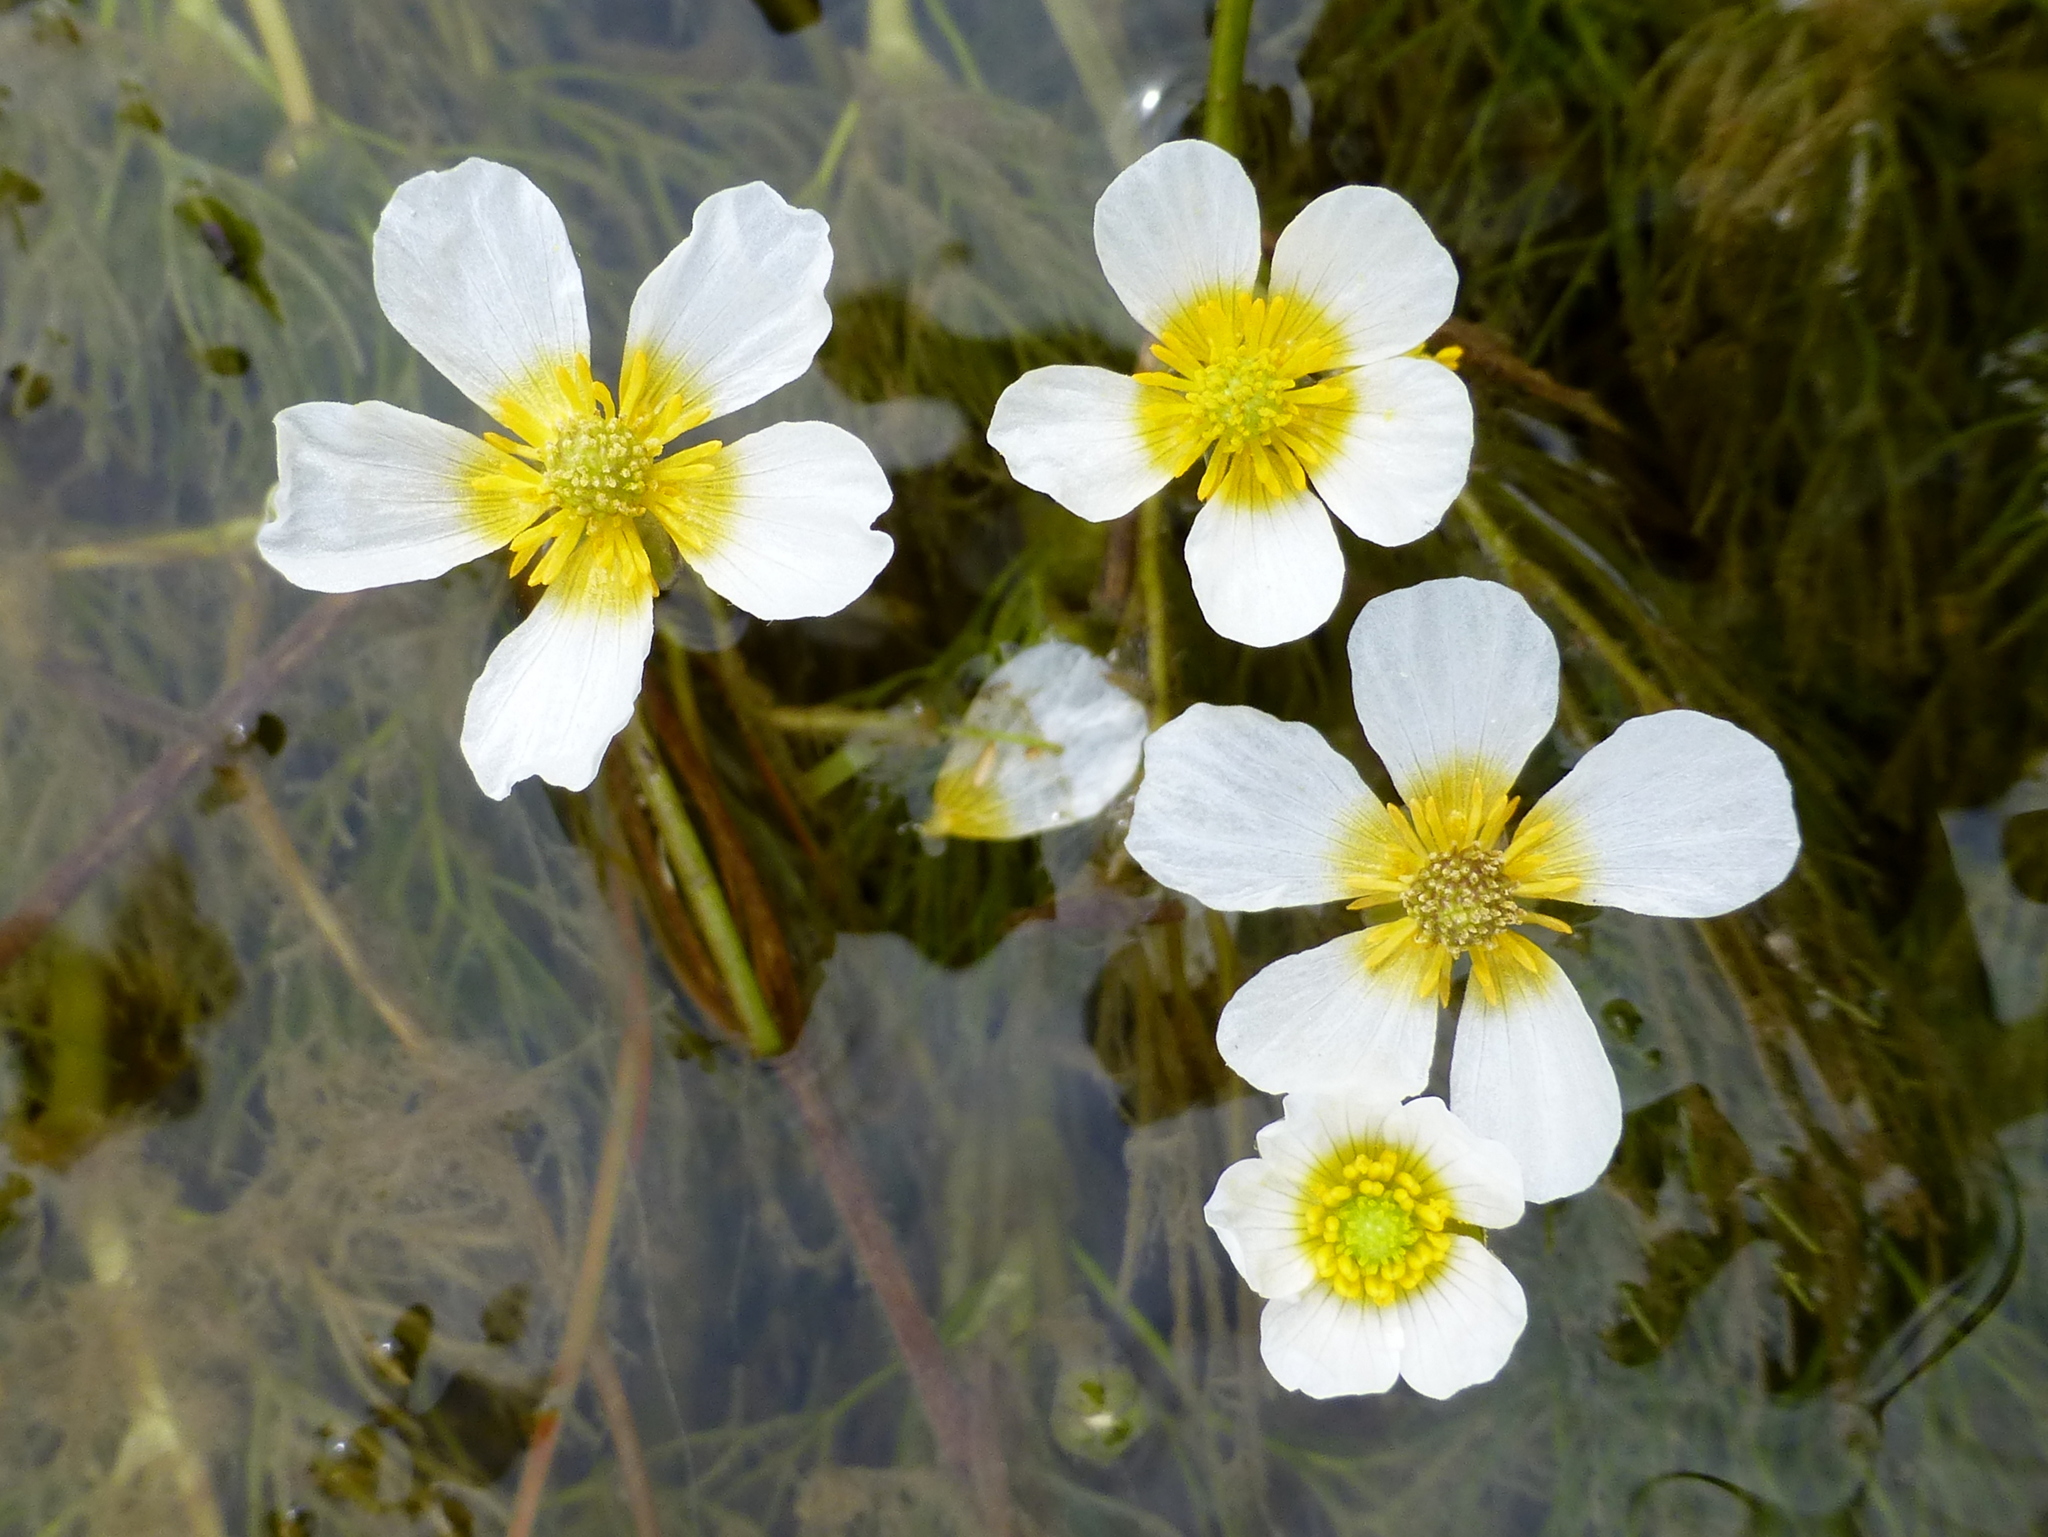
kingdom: Plantae
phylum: Tracheophyta
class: Magnoliopsida
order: Ranunculales
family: Ranunculaceae
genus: Ranunculus
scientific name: Ranunculus trichophyllus
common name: Thread-leaved water-crowfoot
